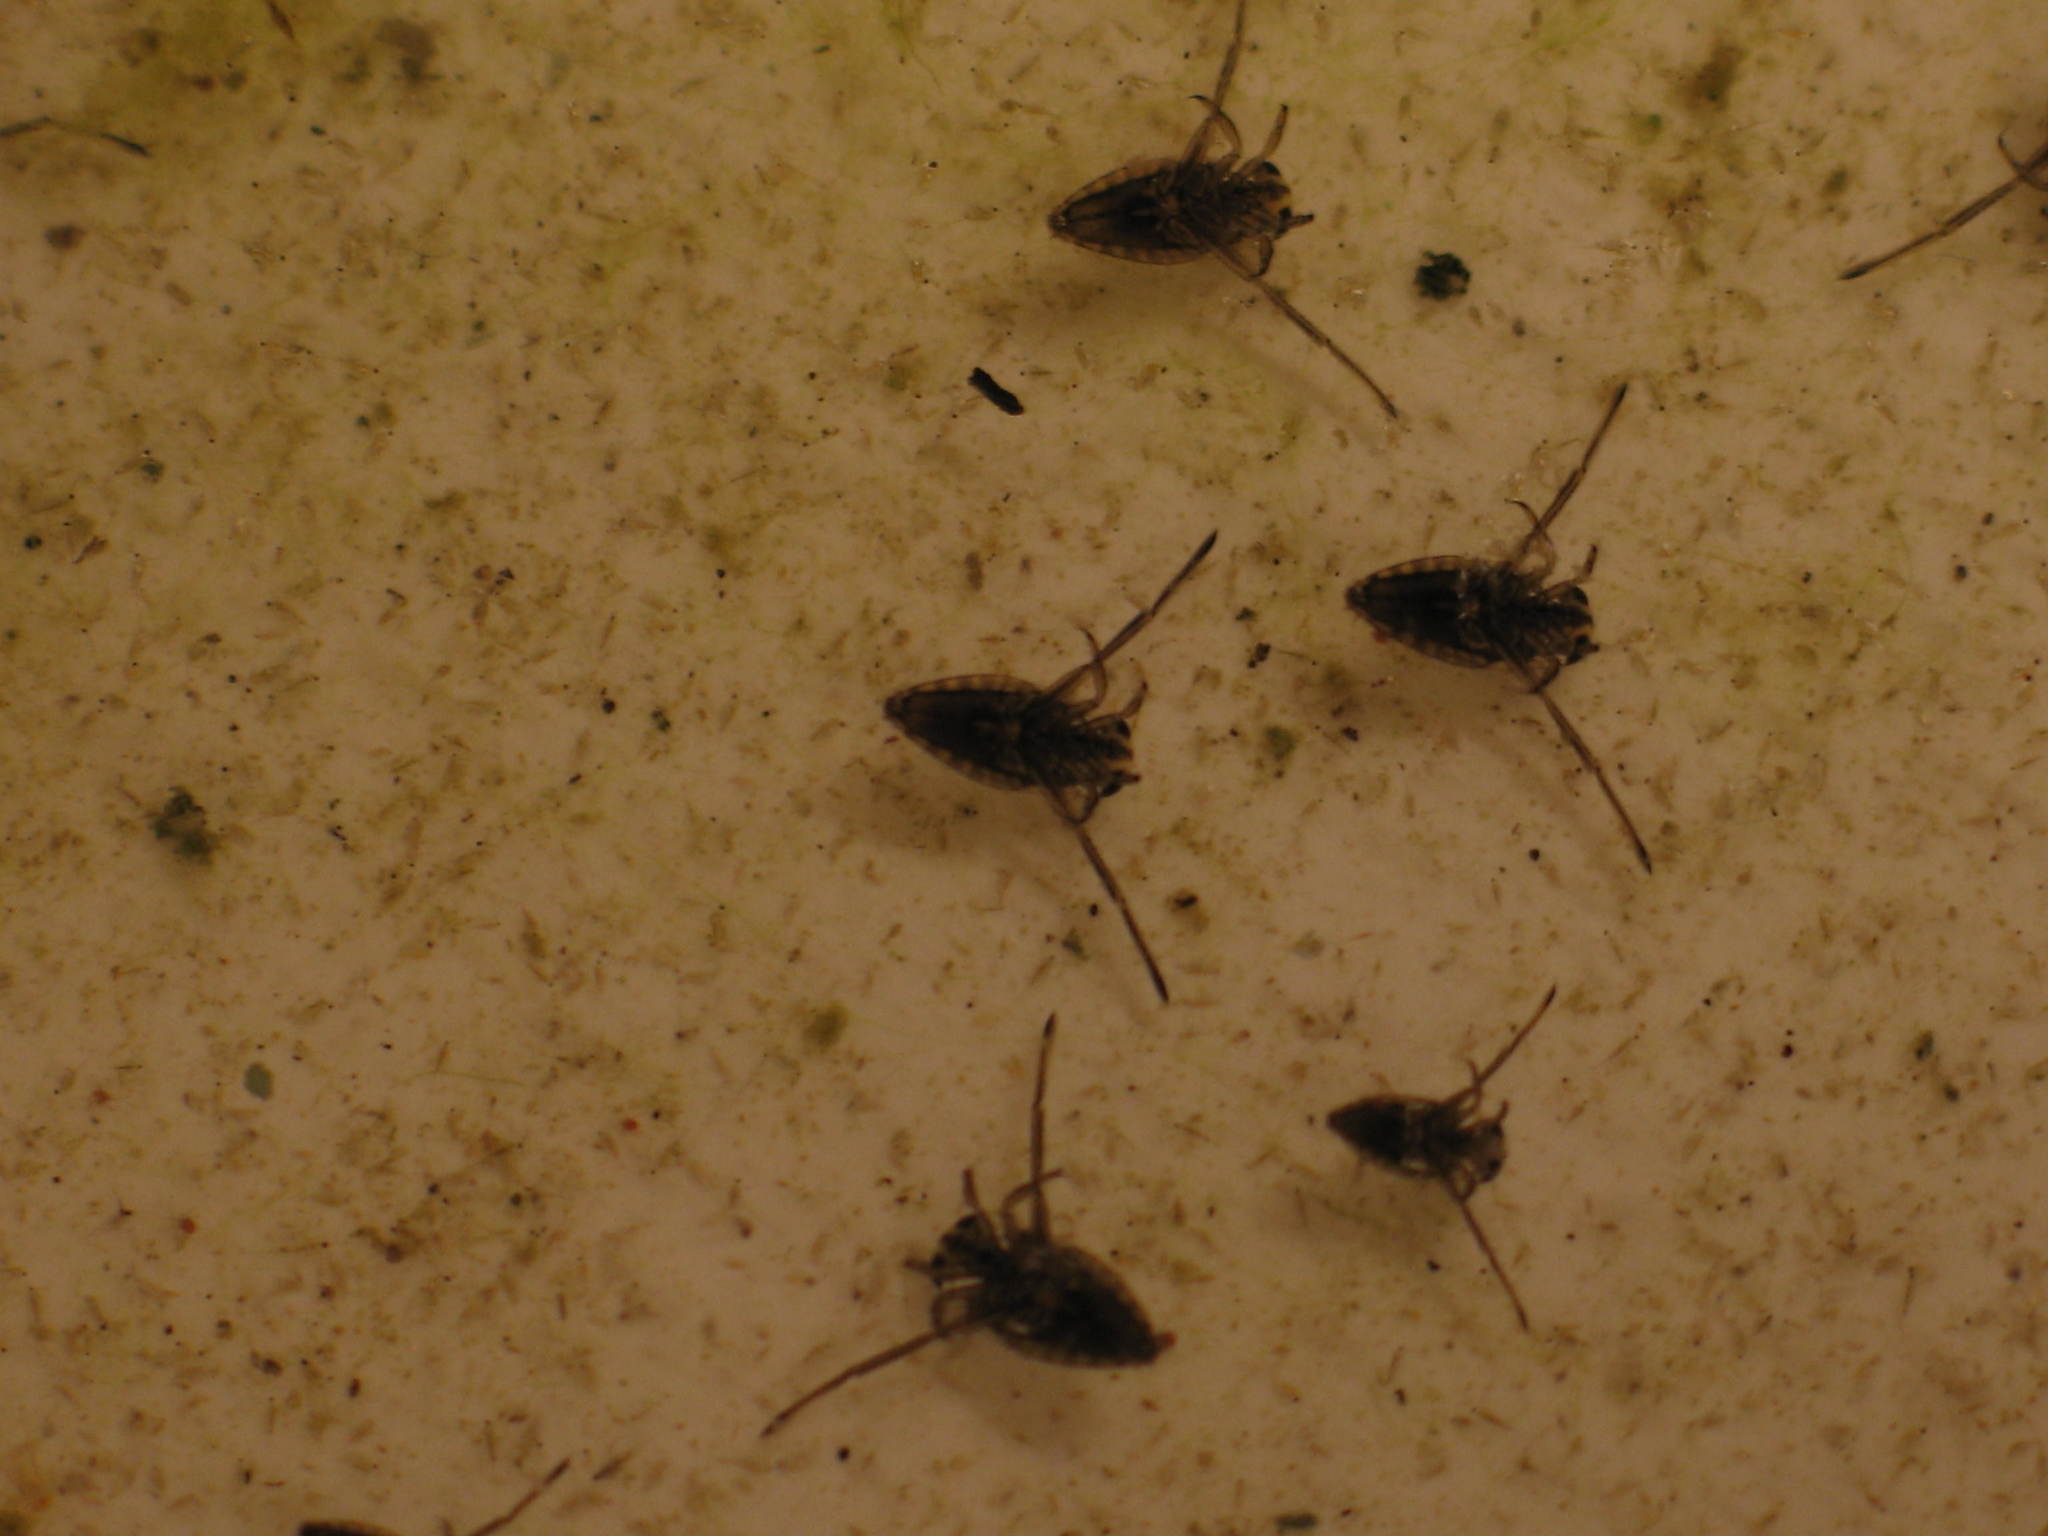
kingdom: Animalia
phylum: Arthropoda
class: Insecta
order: Hemiptera
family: Notonectidae
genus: Notonecta
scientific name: Notonecta
